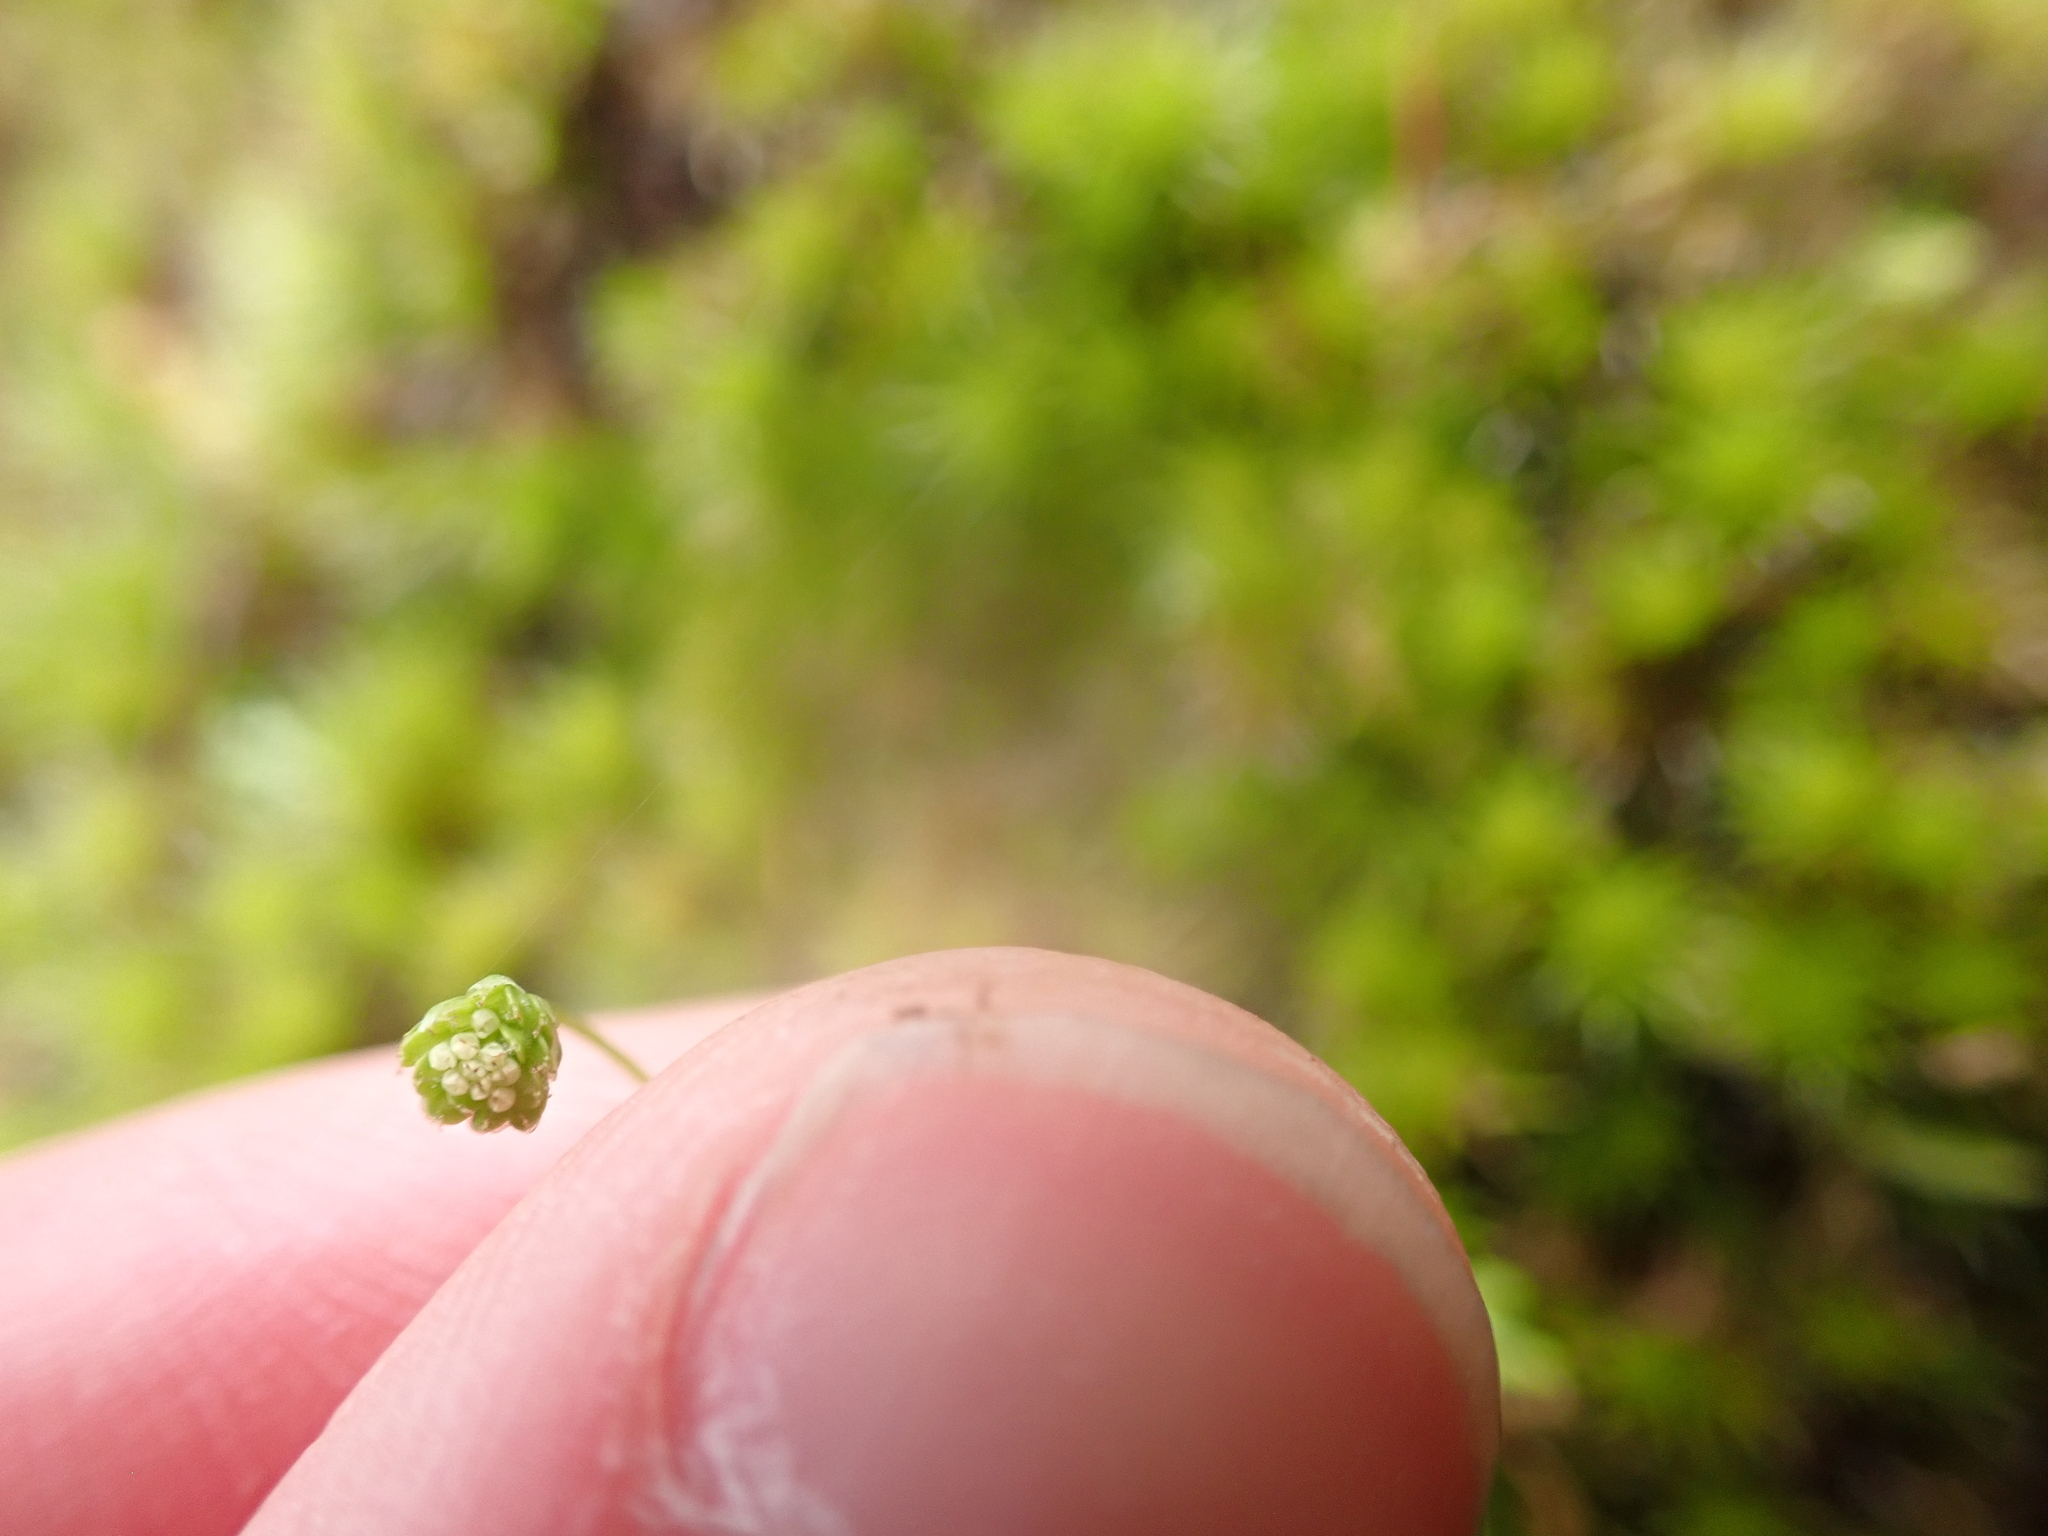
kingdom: Plantae
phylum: Tracheophyta
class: Magnoliopsida
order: Asterales
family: Asteraceae
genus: Cotula
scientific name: Cotula australis
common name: Australian waterbuttons
